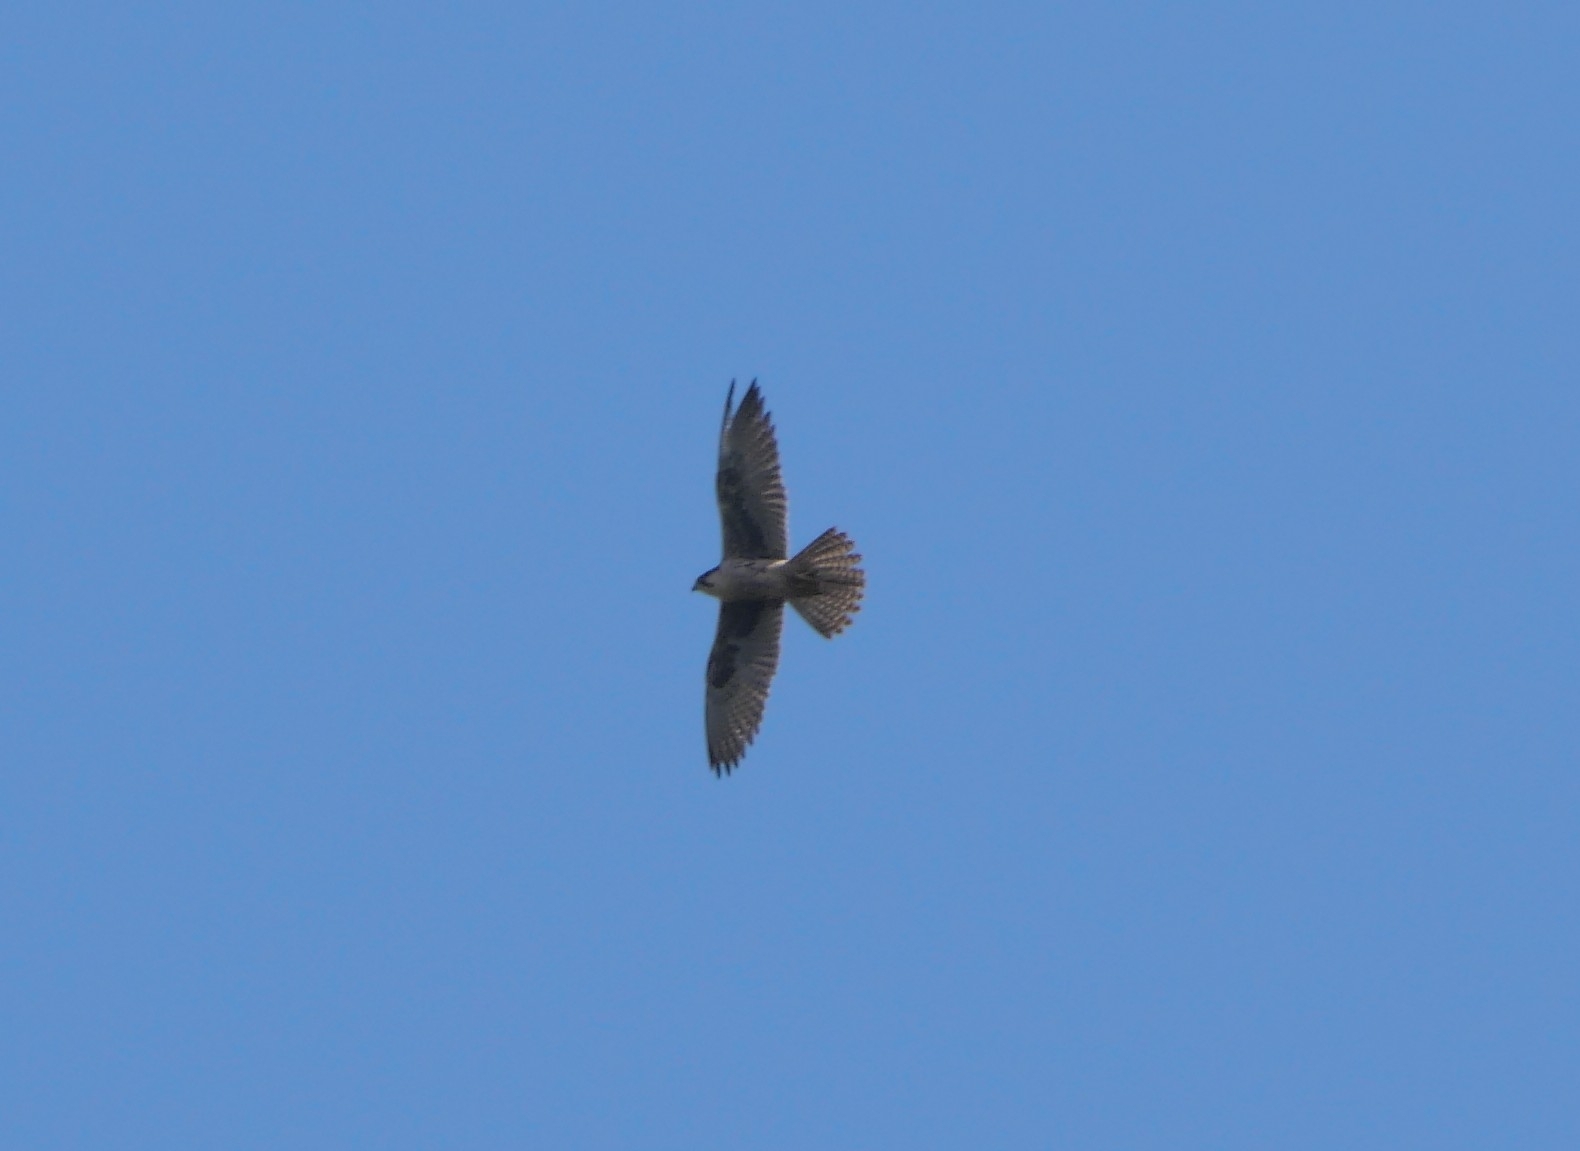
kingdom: Animalia
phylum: Chordata
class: Aves
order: Falconiformes
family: Falconidae
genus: Falco
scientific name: Falco biarmicus
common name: Lanner falcon
